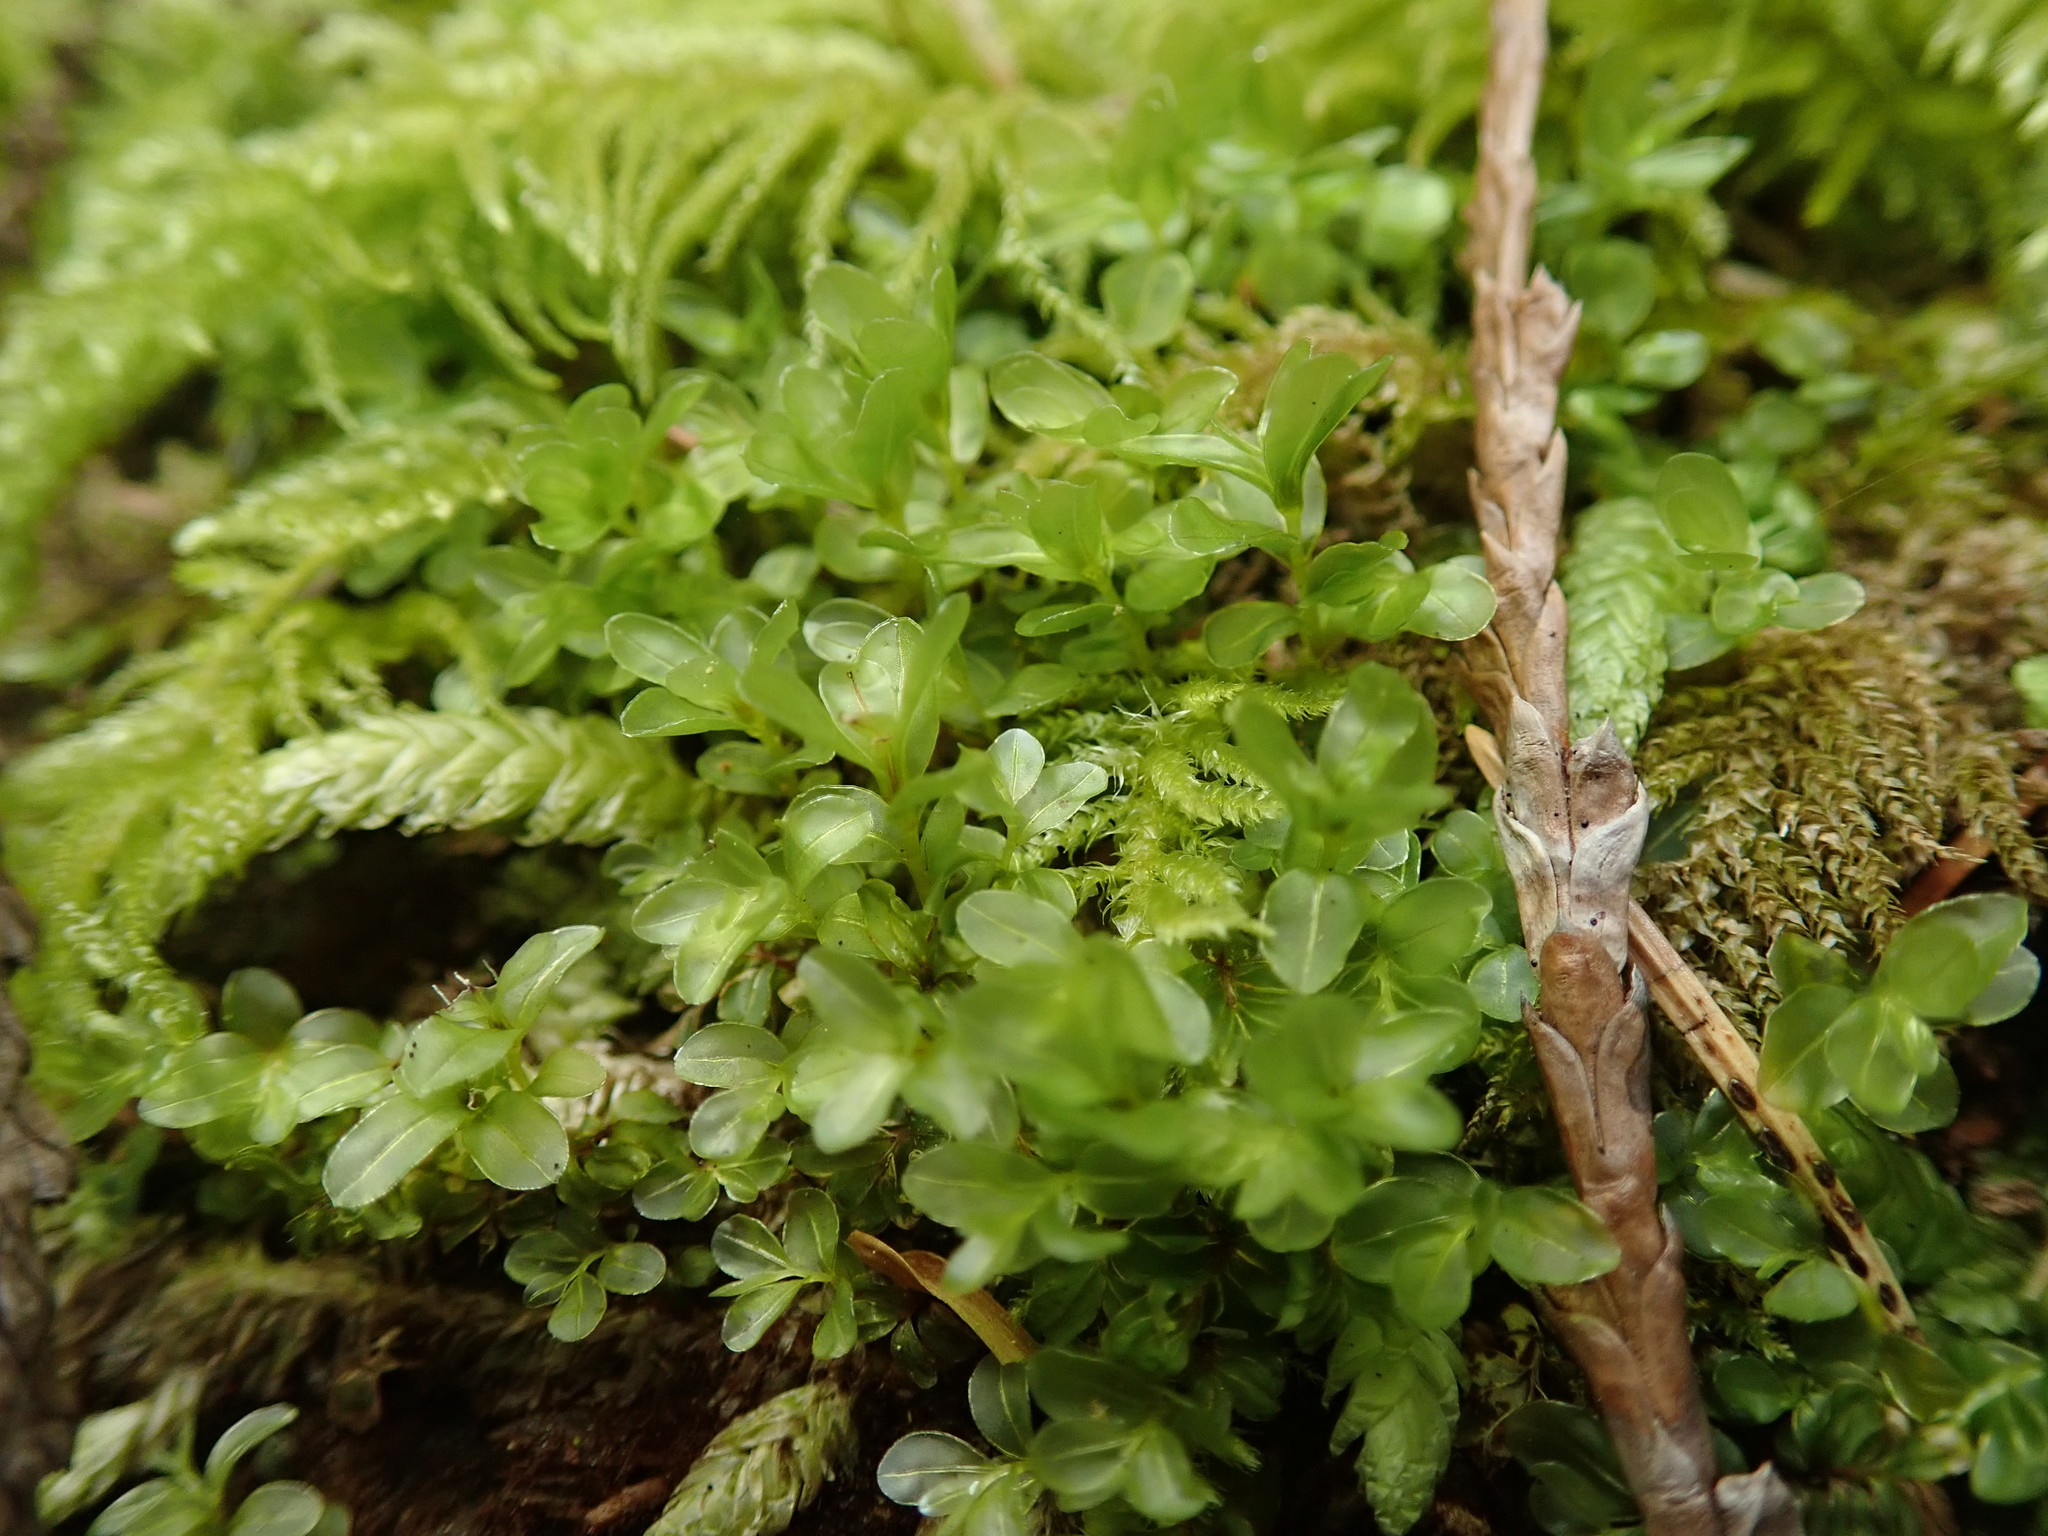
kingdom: Plantae
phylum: Bryophyta
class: Bryopsida
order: Bryales
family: Mniaceae
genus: Rhizomnium
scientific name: Rhizomnium glabrescens
